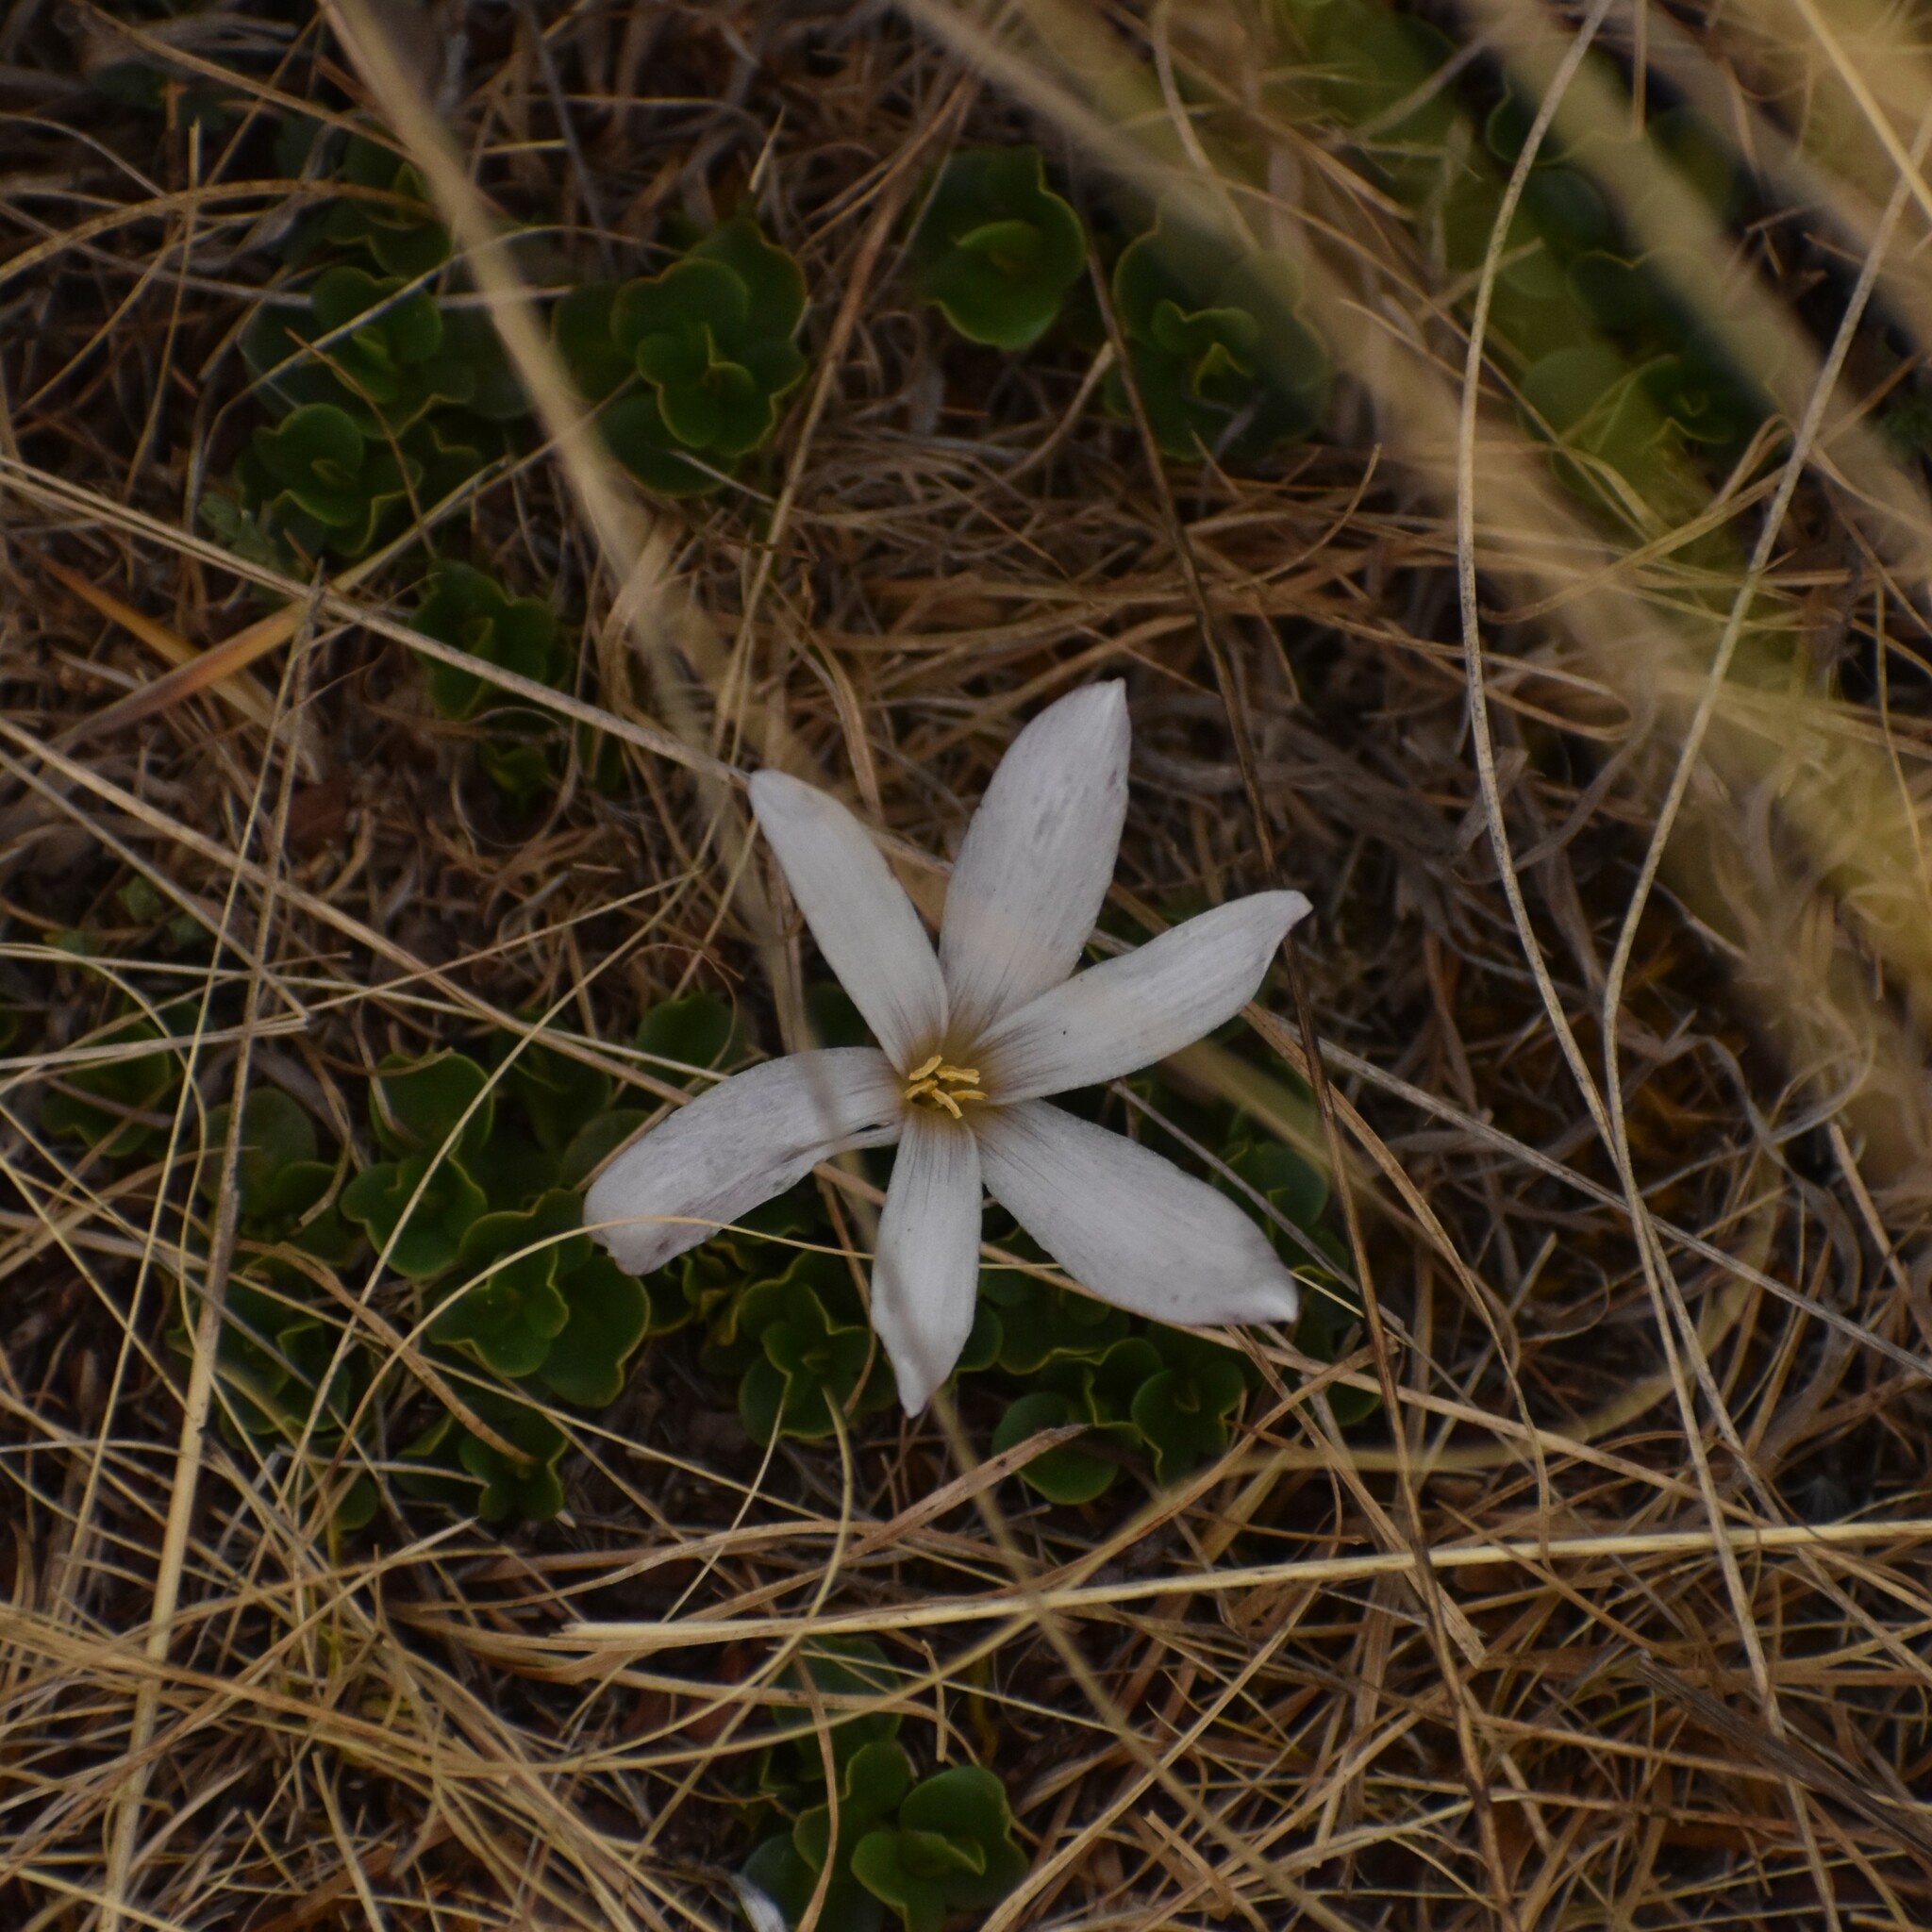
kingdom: Plantae
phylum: Tracheophyta
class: Liliopsida
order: Asparagales
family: Amaryllidaceae
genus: Zephyranthes
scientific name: Zephyranthes andina
